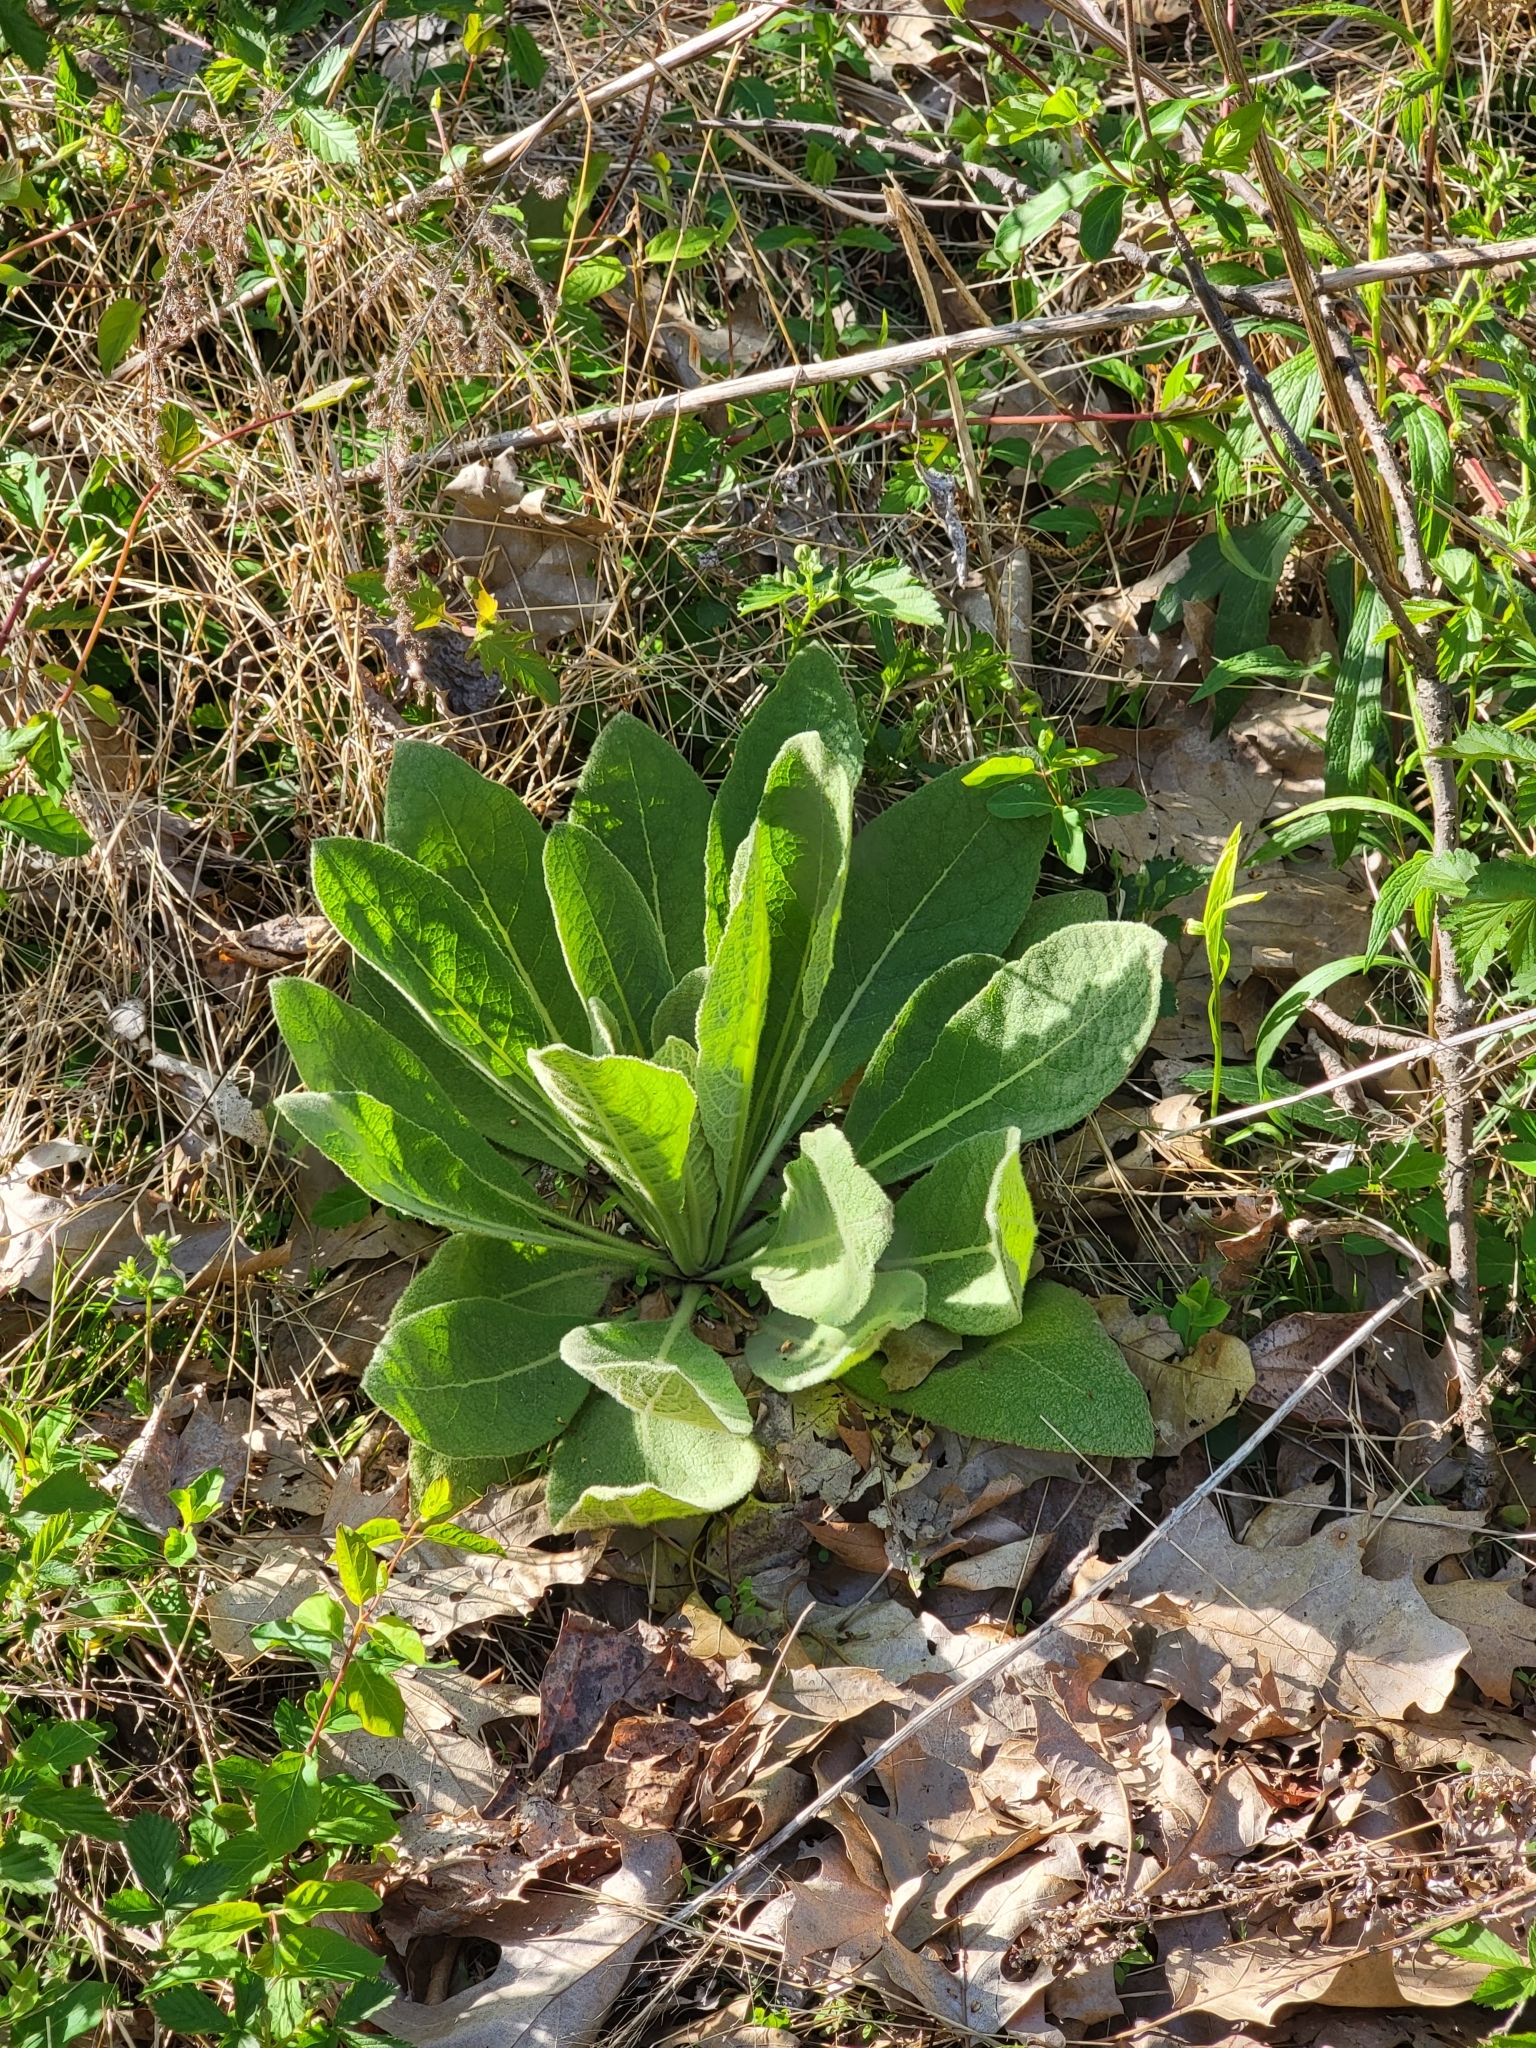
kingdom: Plantae
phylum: Tracheophyta
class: Magnoliopsida
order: Lamiales
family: Scrophulariaceae
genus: Verbascum
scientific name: Verbascum thapsus
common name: Common mullein
